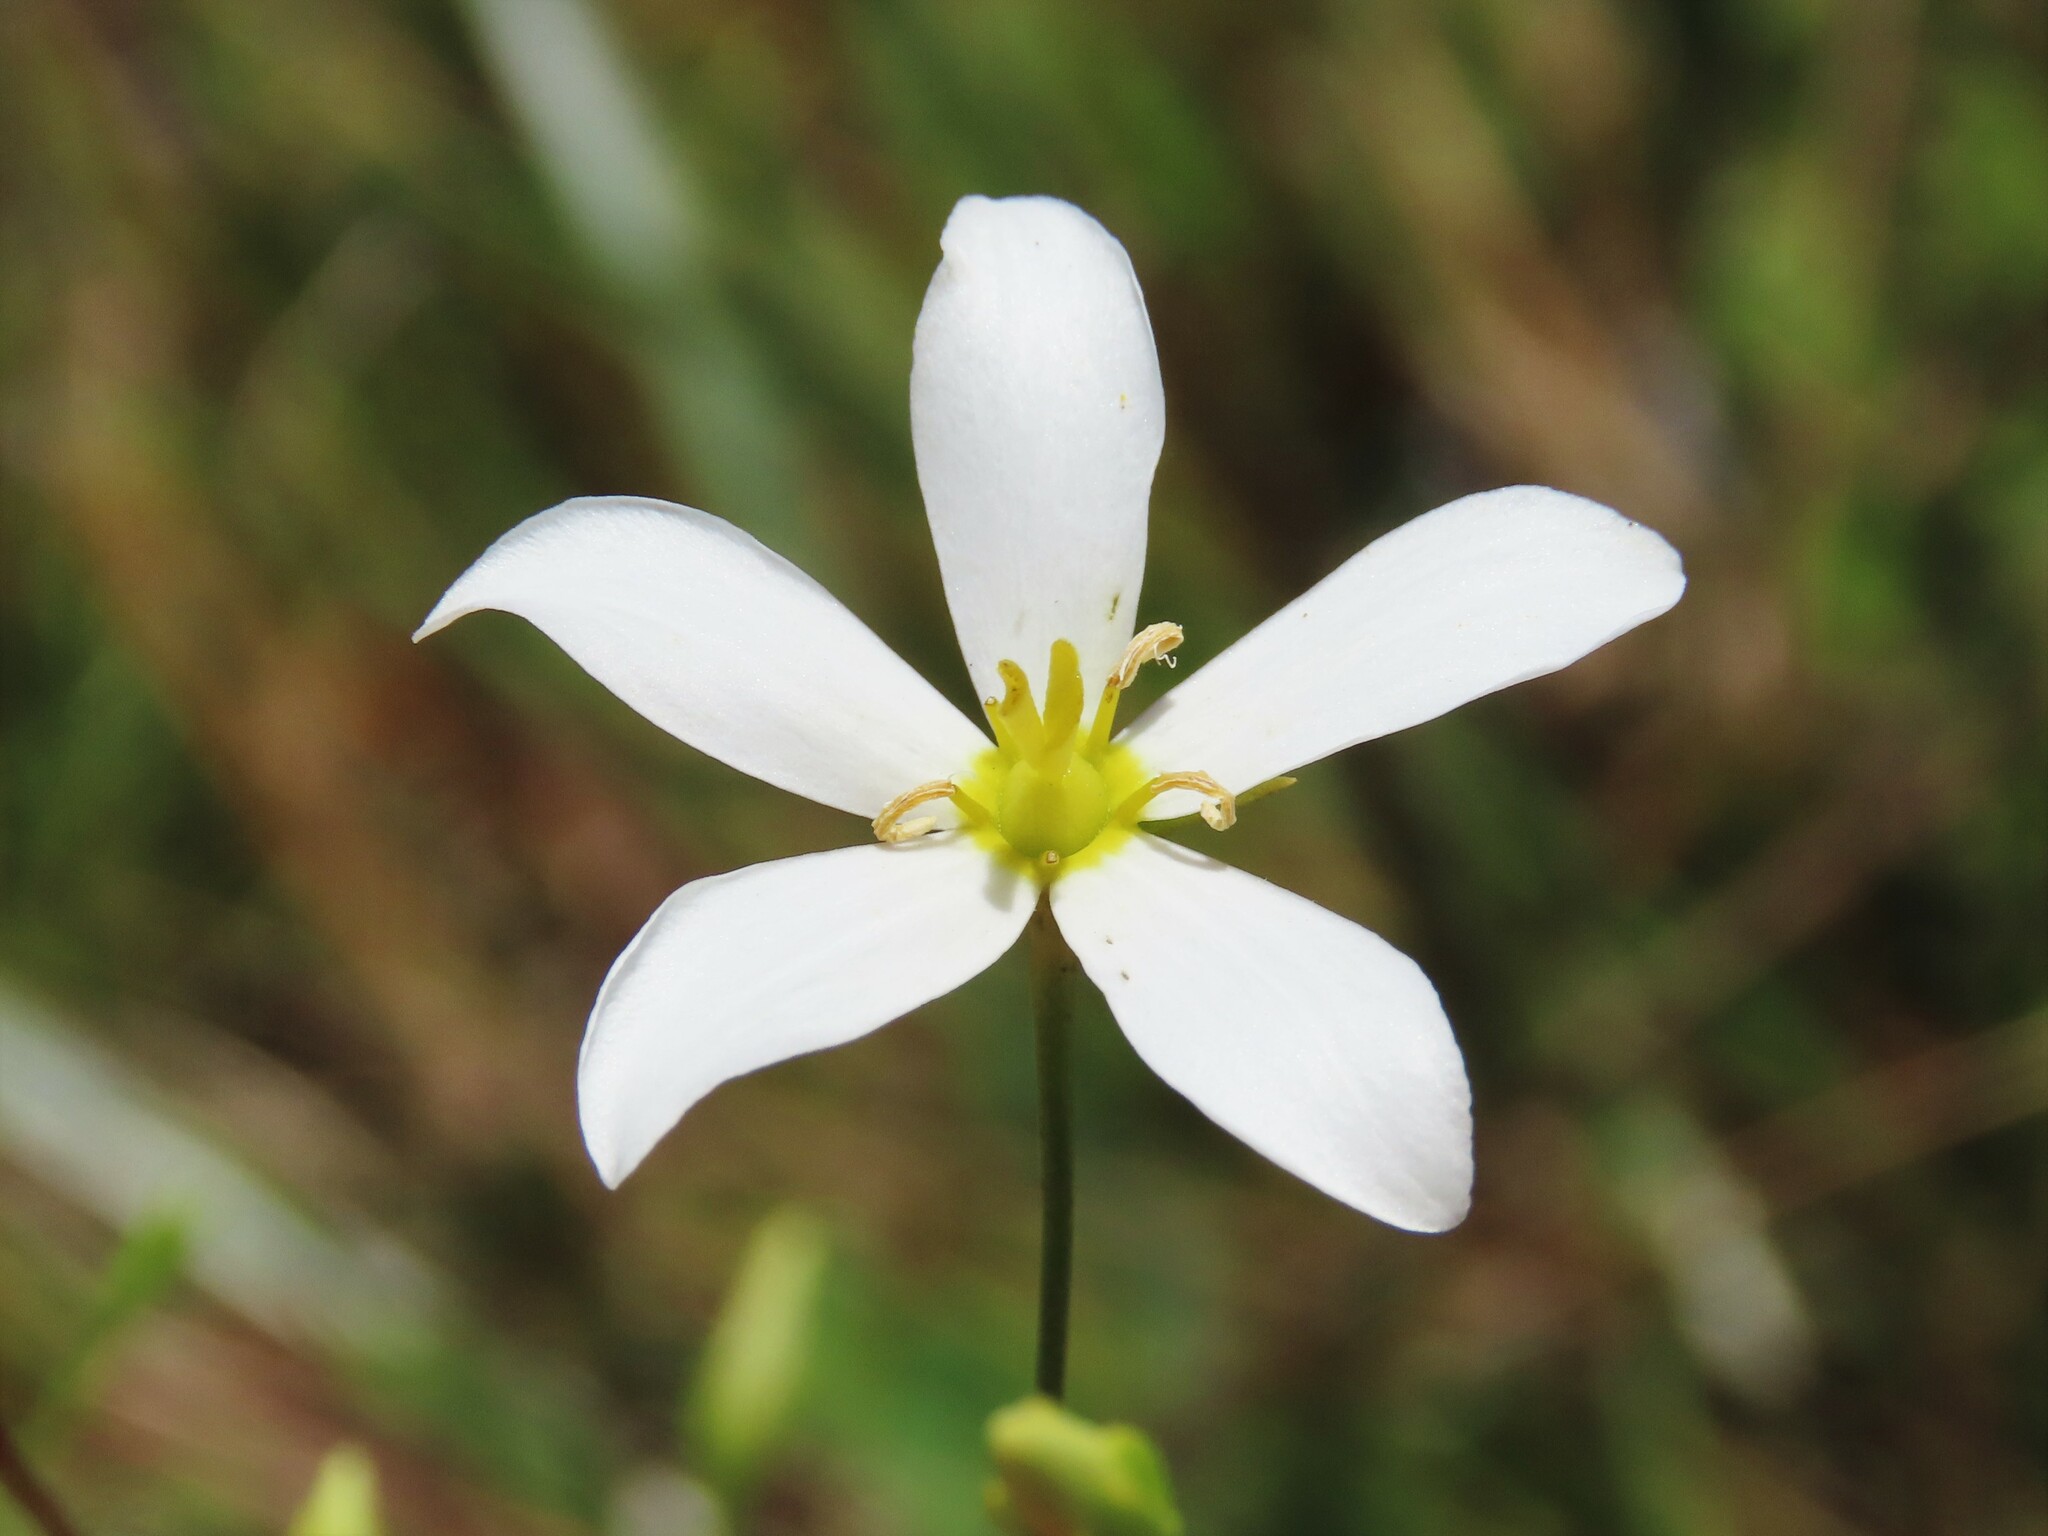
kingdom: Plantae
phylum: Tracheophyta
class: Magnoliopsida
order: Gentianales
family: Gentianaceae
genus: Sabatia
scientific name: Sabatia brevifolia
